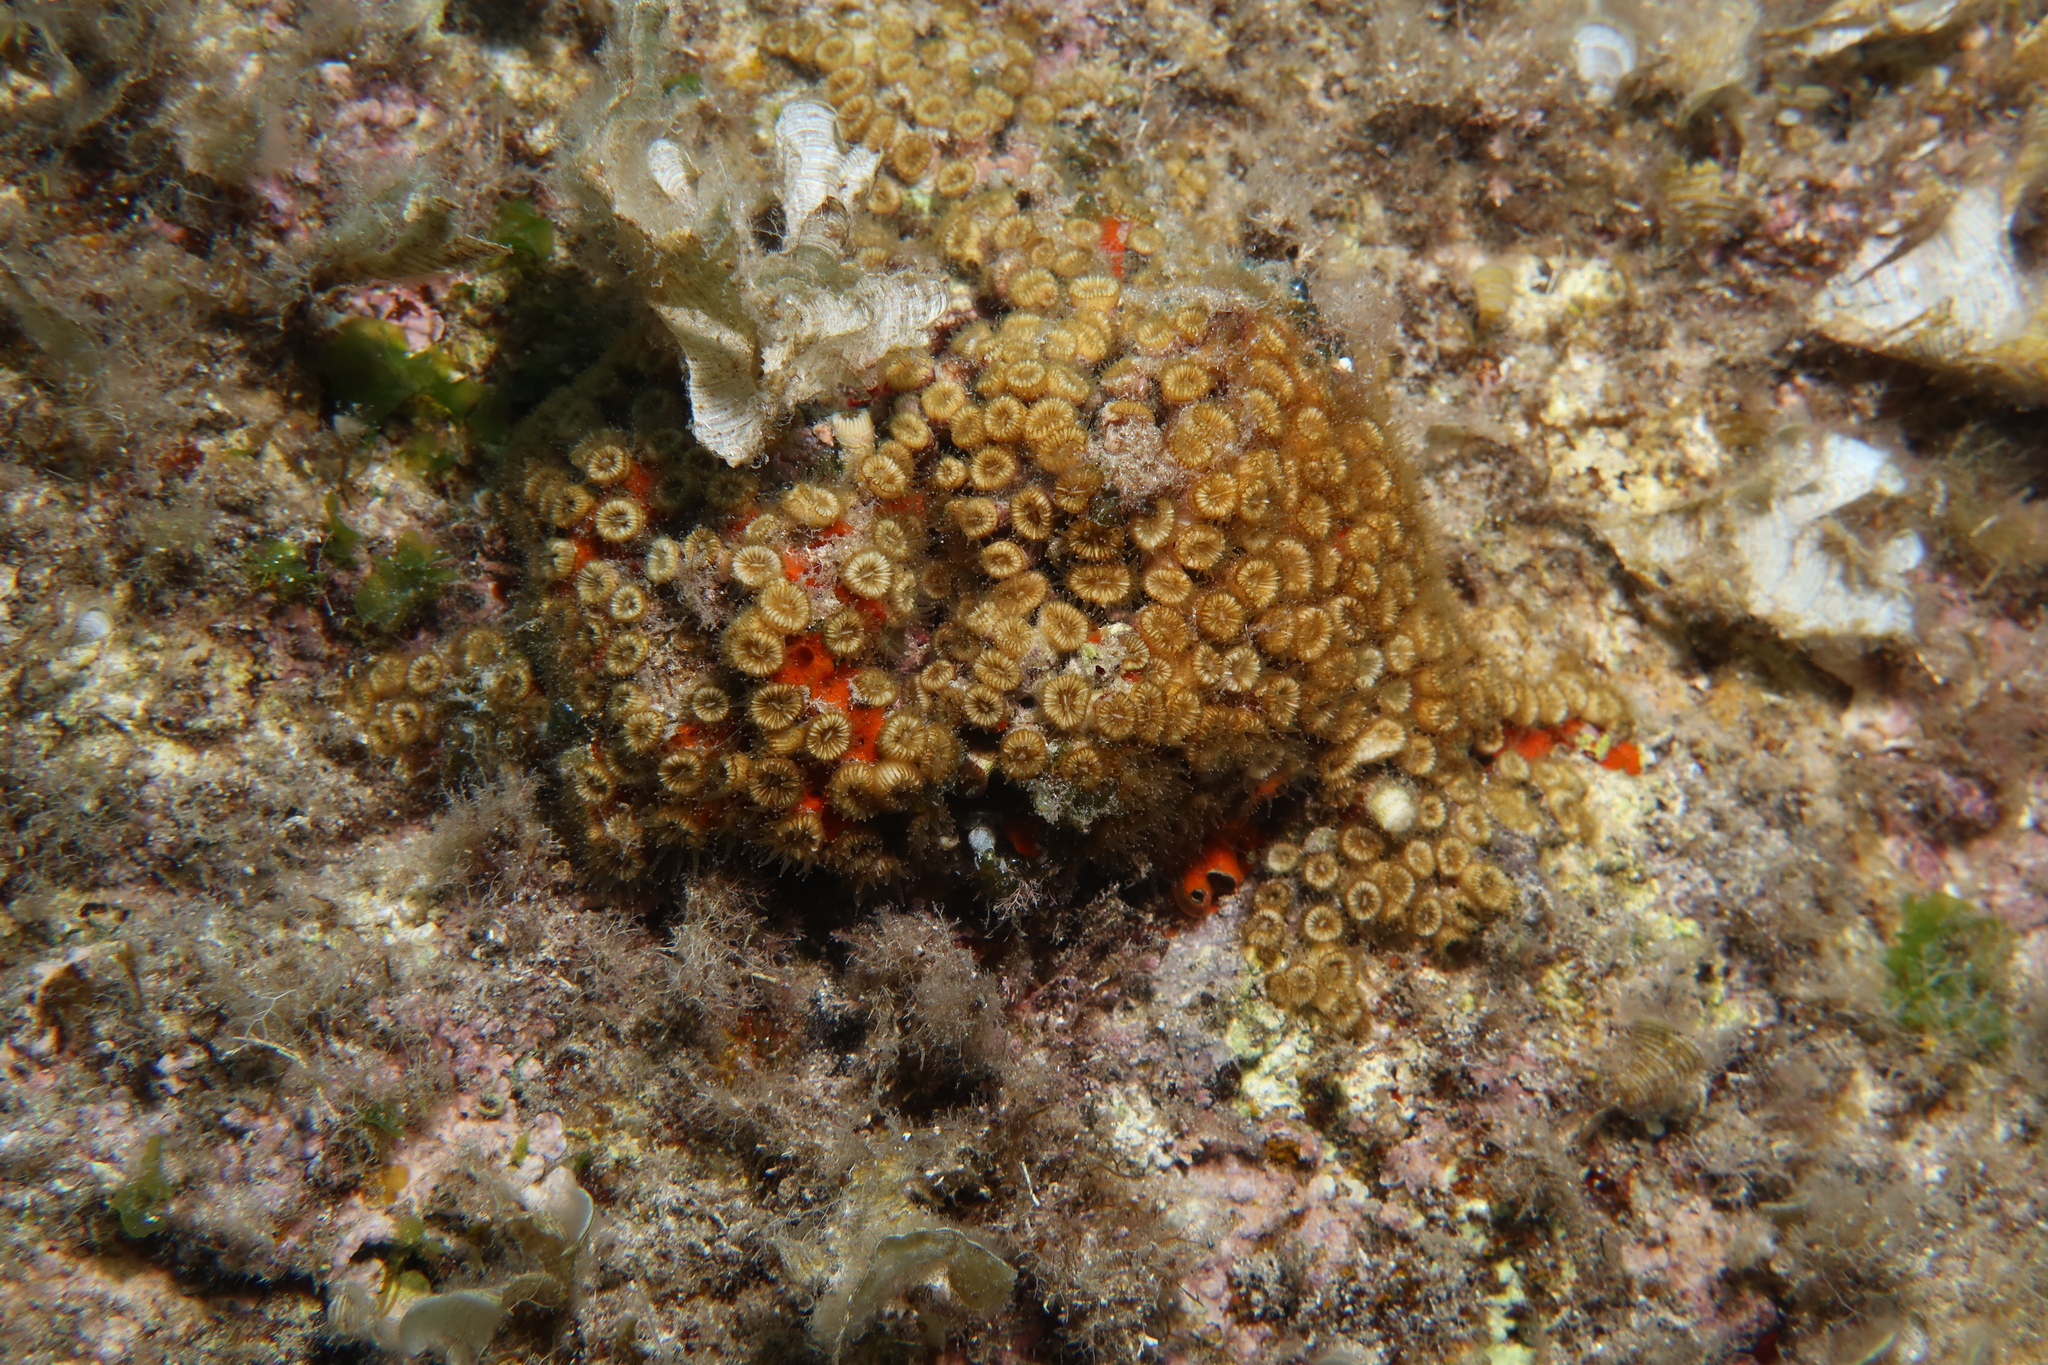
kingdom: Animalia
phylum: Cnidaria
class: Anthozoa
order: Scleractinia
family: Cladocoridae
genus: Cladocora
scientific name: Cladocora caespitosa
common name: Cladocora
